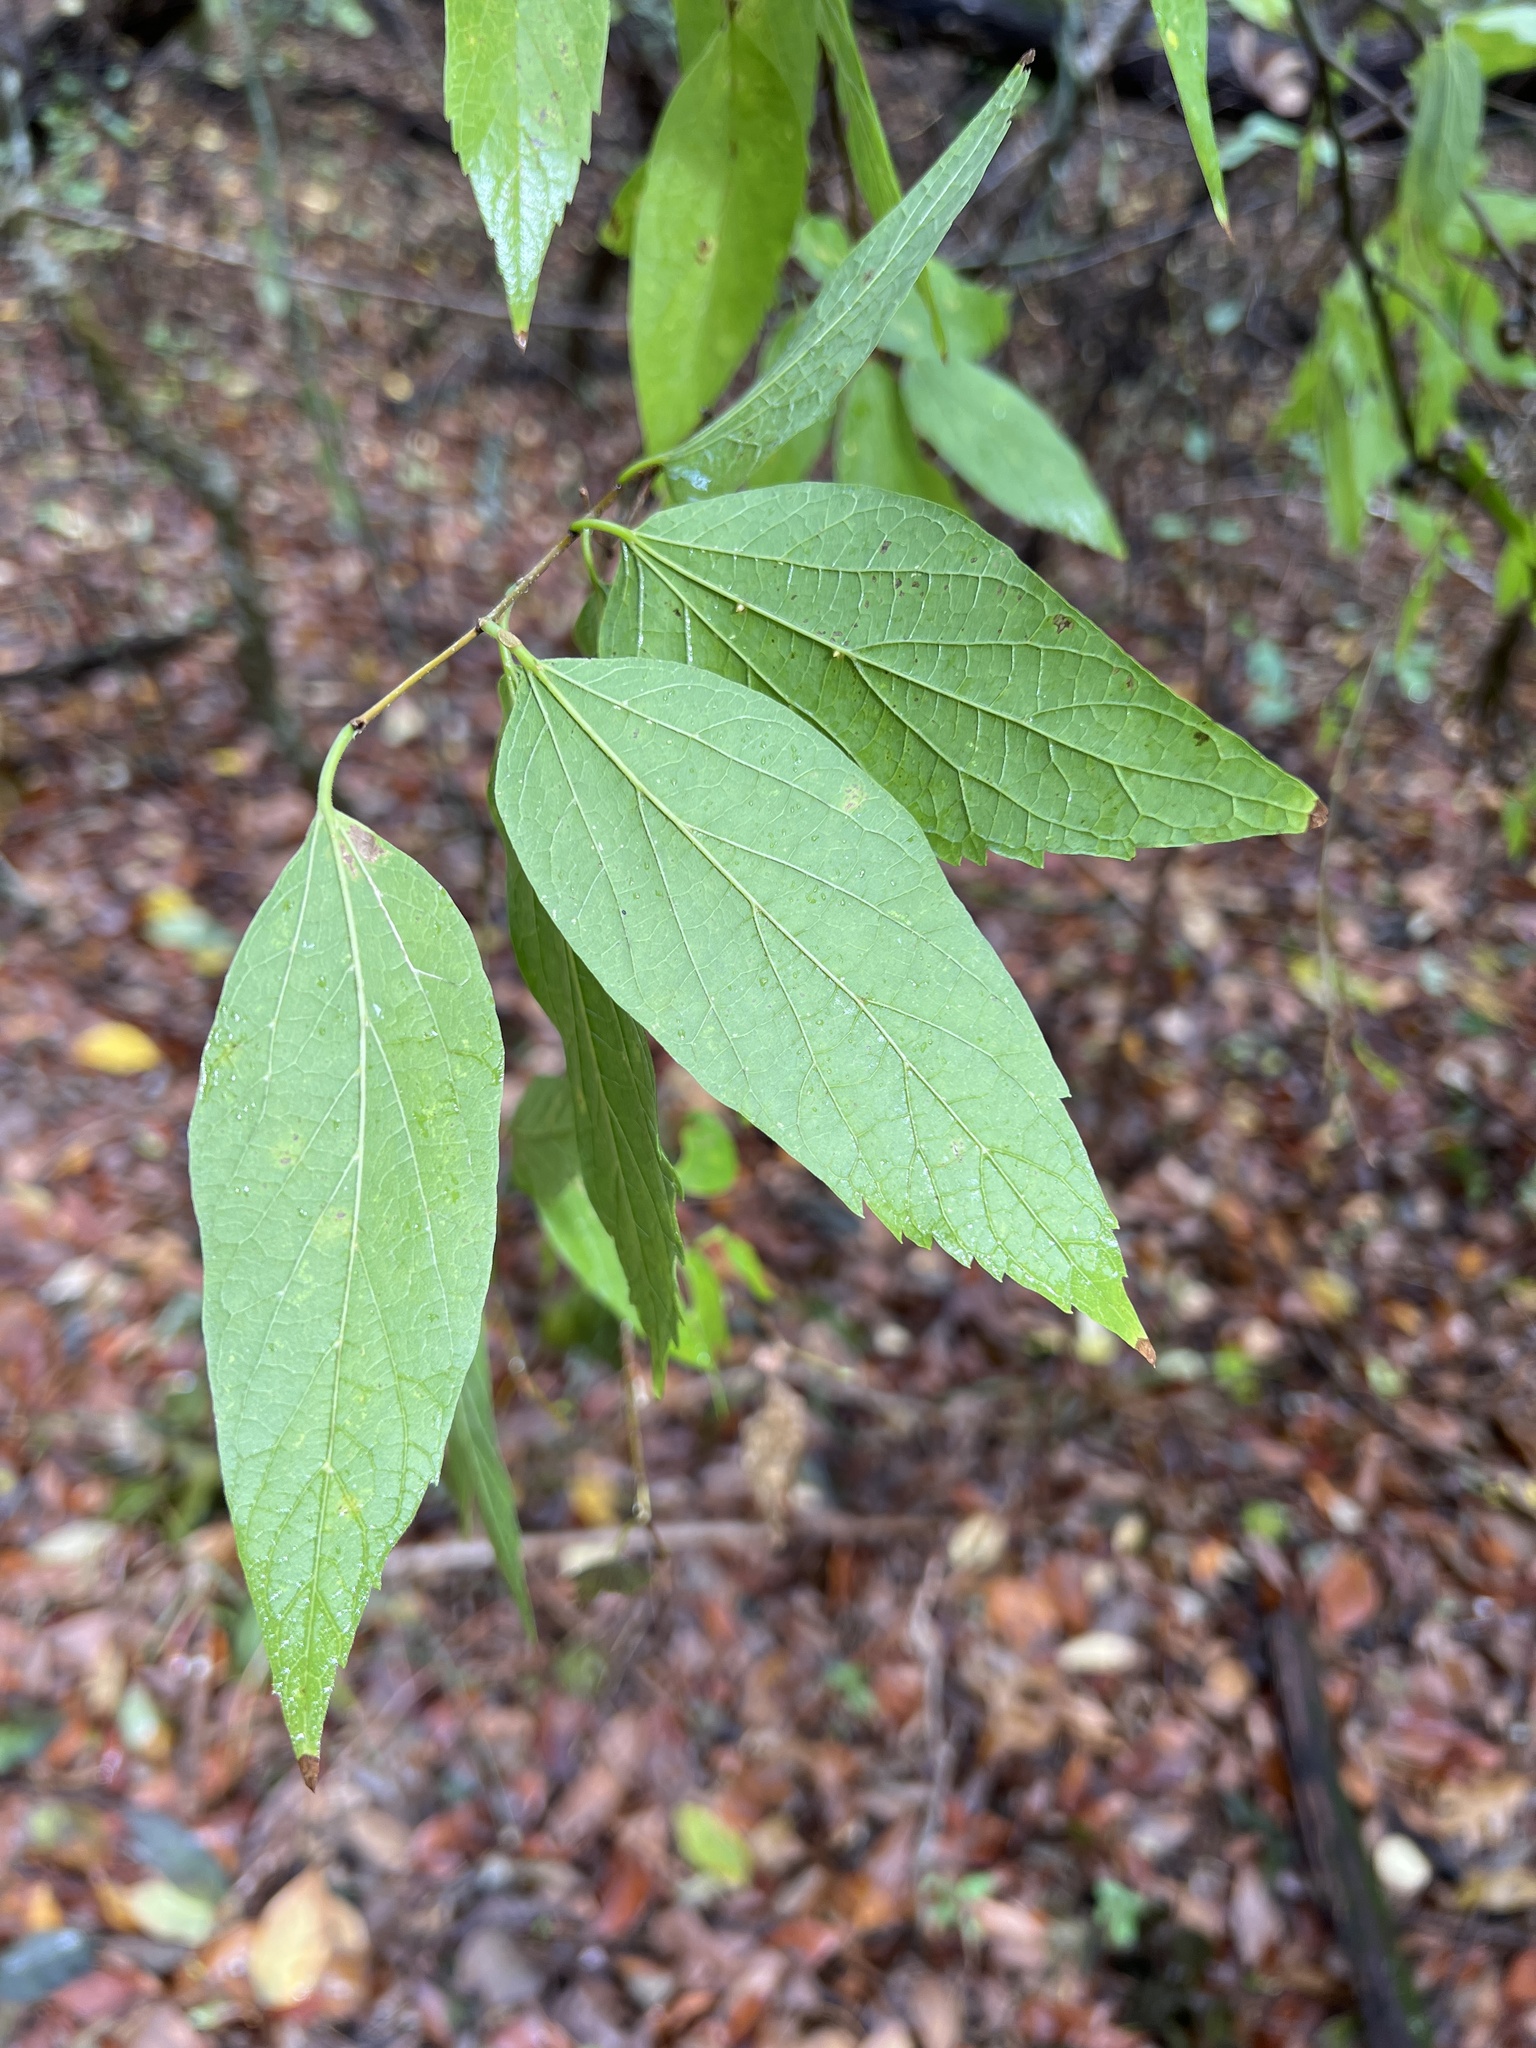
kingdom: Plantae
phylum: Tracheophyta
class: Magnoliopsida
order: Rosales
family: Cannabaceae
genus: Celtis
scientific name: Celtis laevigata
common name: Sugarberry
